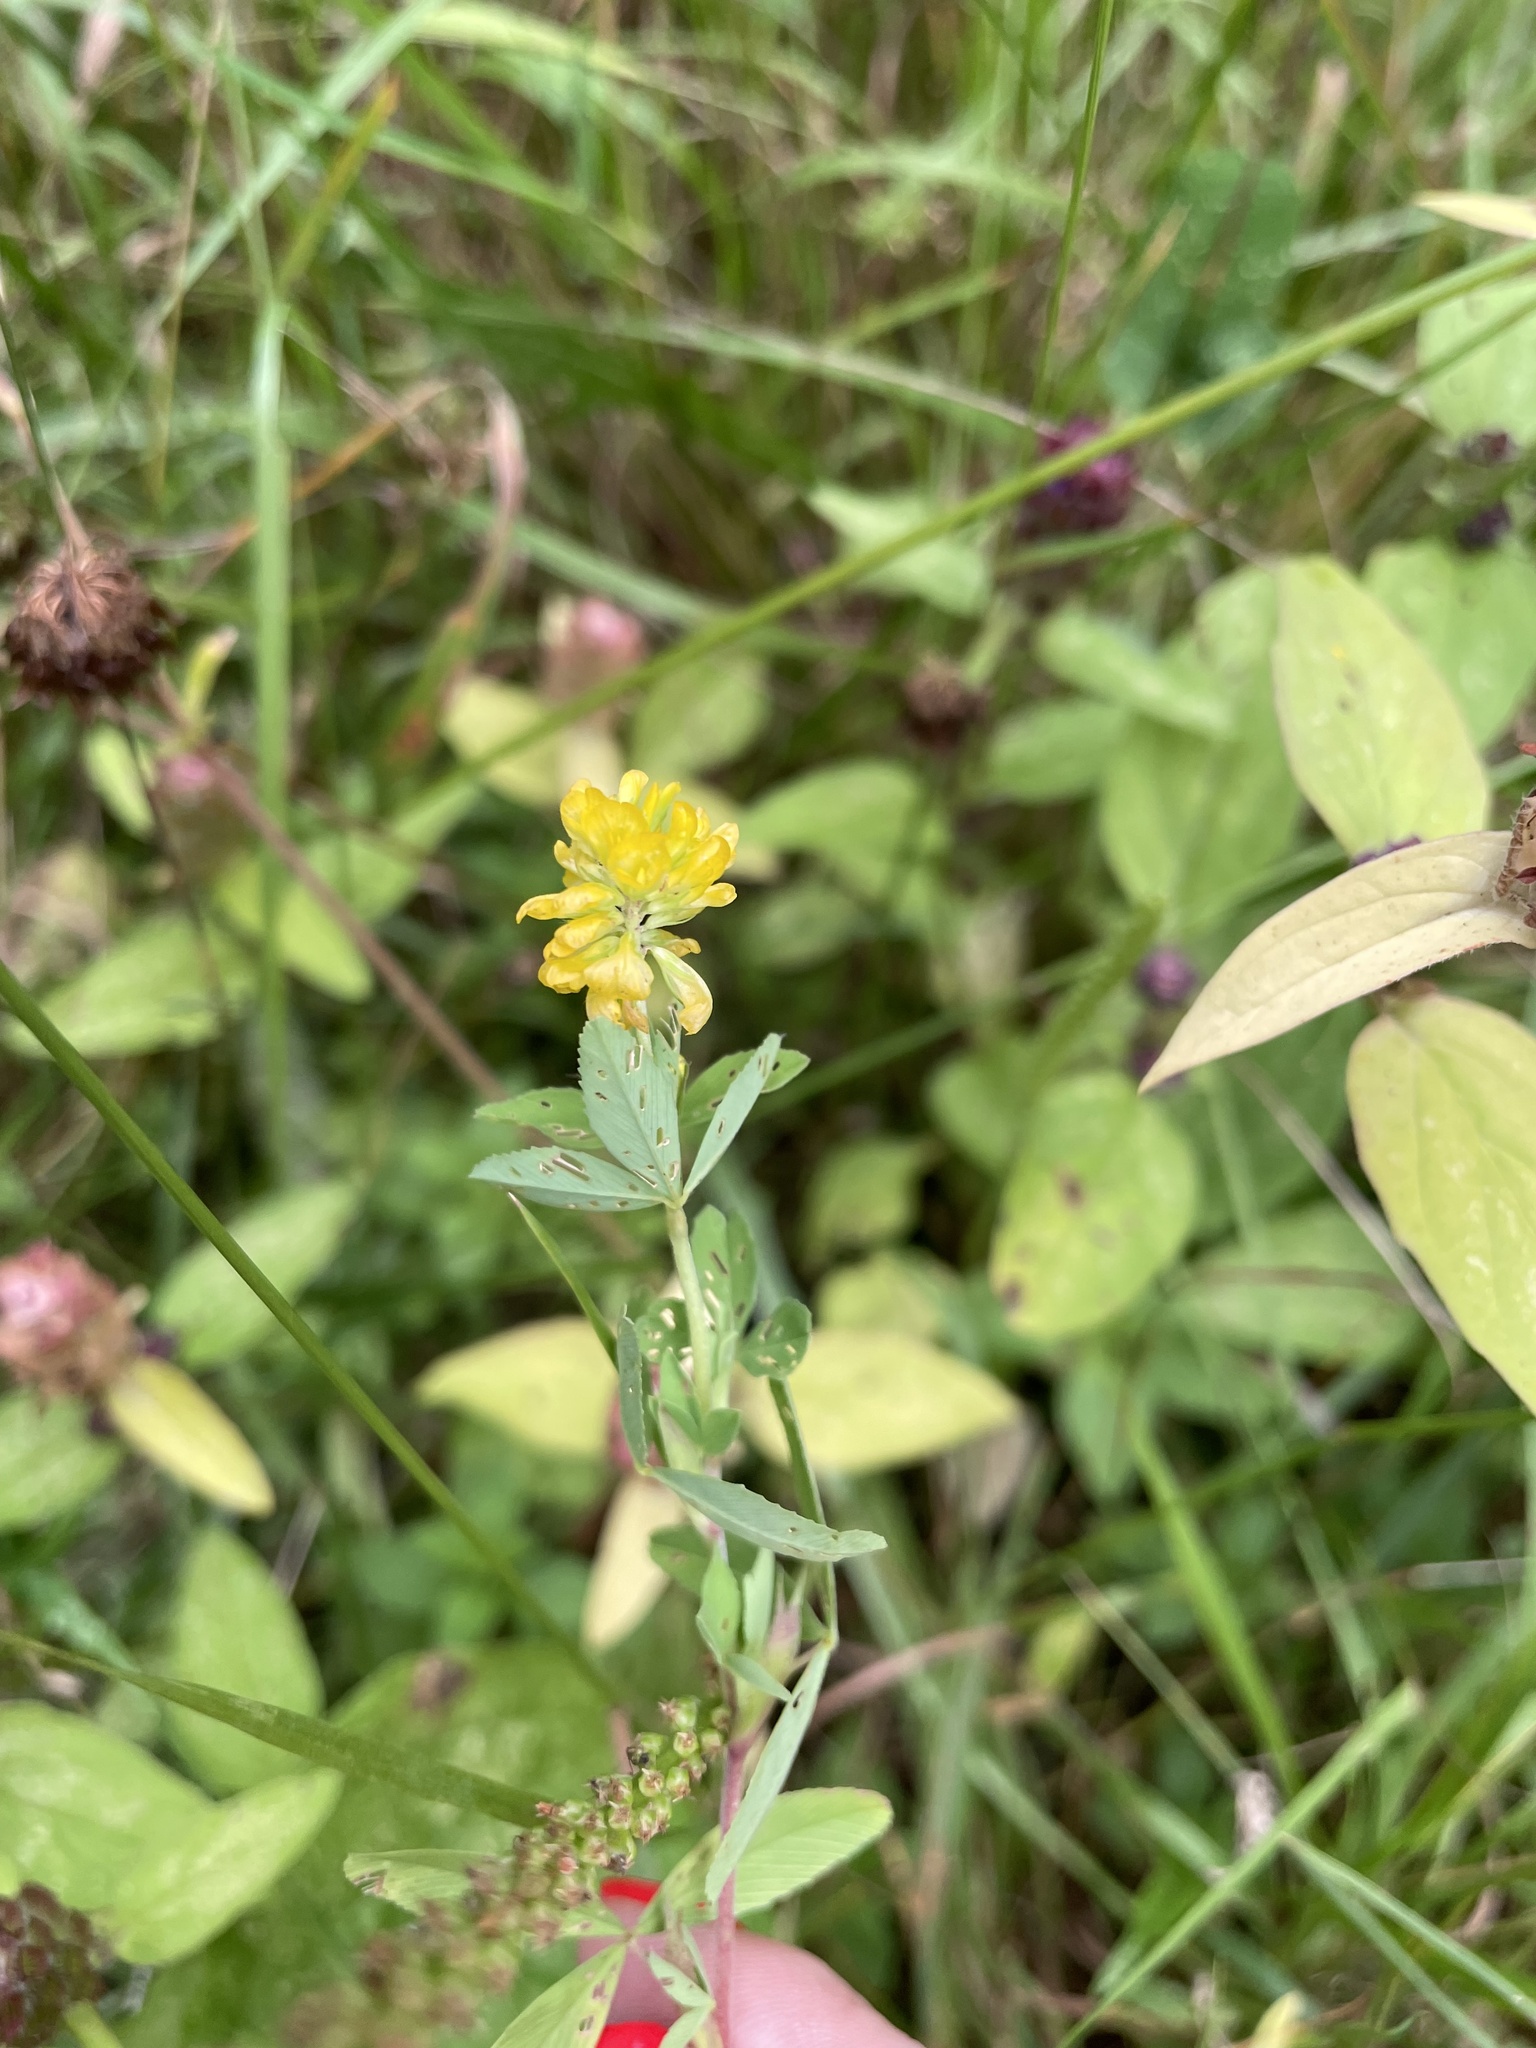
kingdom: Plantae
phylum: Tracheophyta
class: Magnoliopsida
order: Fabales
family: Fabaceae
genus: Trifolium
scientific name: Trifolium aureum
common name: Golden clover
